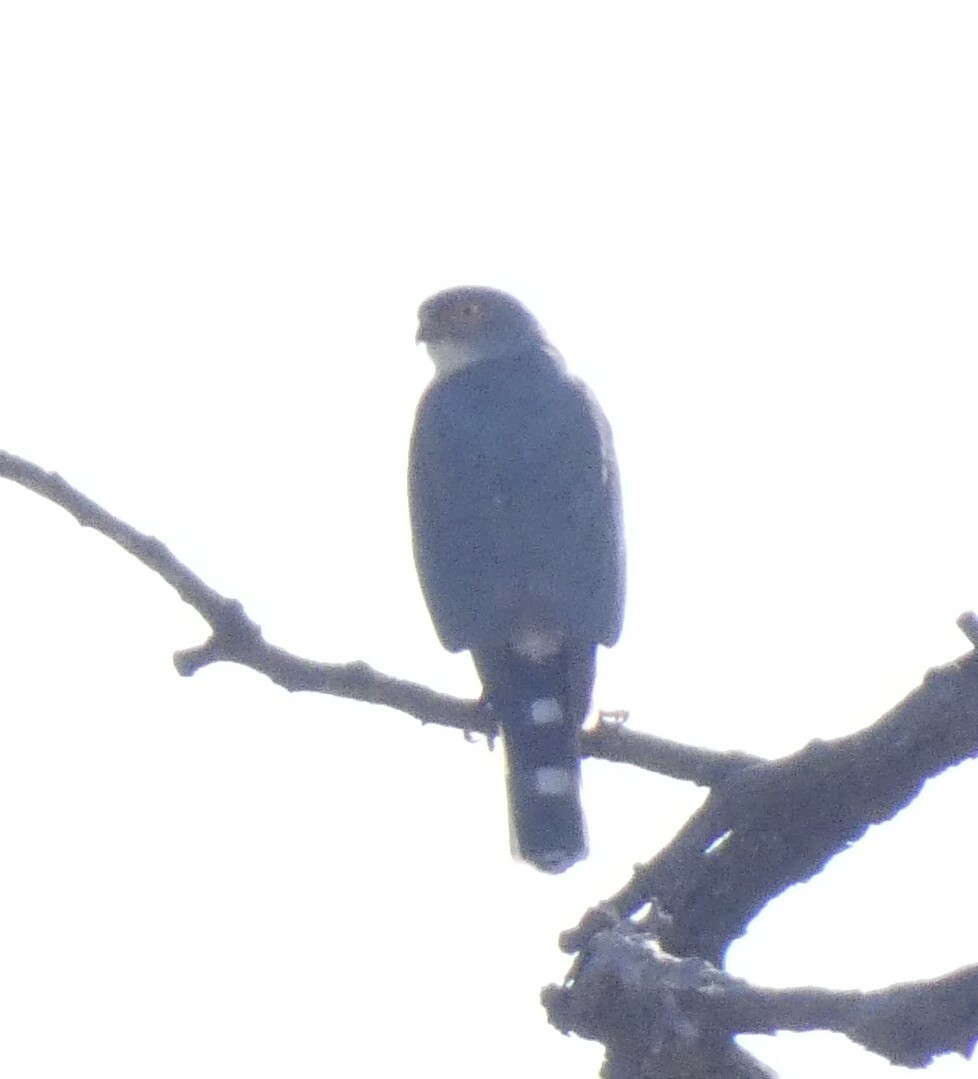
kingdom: Animalia
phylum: Chordata
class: Aves
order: Accipitriformes
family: Accipitridae
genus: Accipiter
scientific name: Accipiter minullus
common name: Little sparrowhawk
